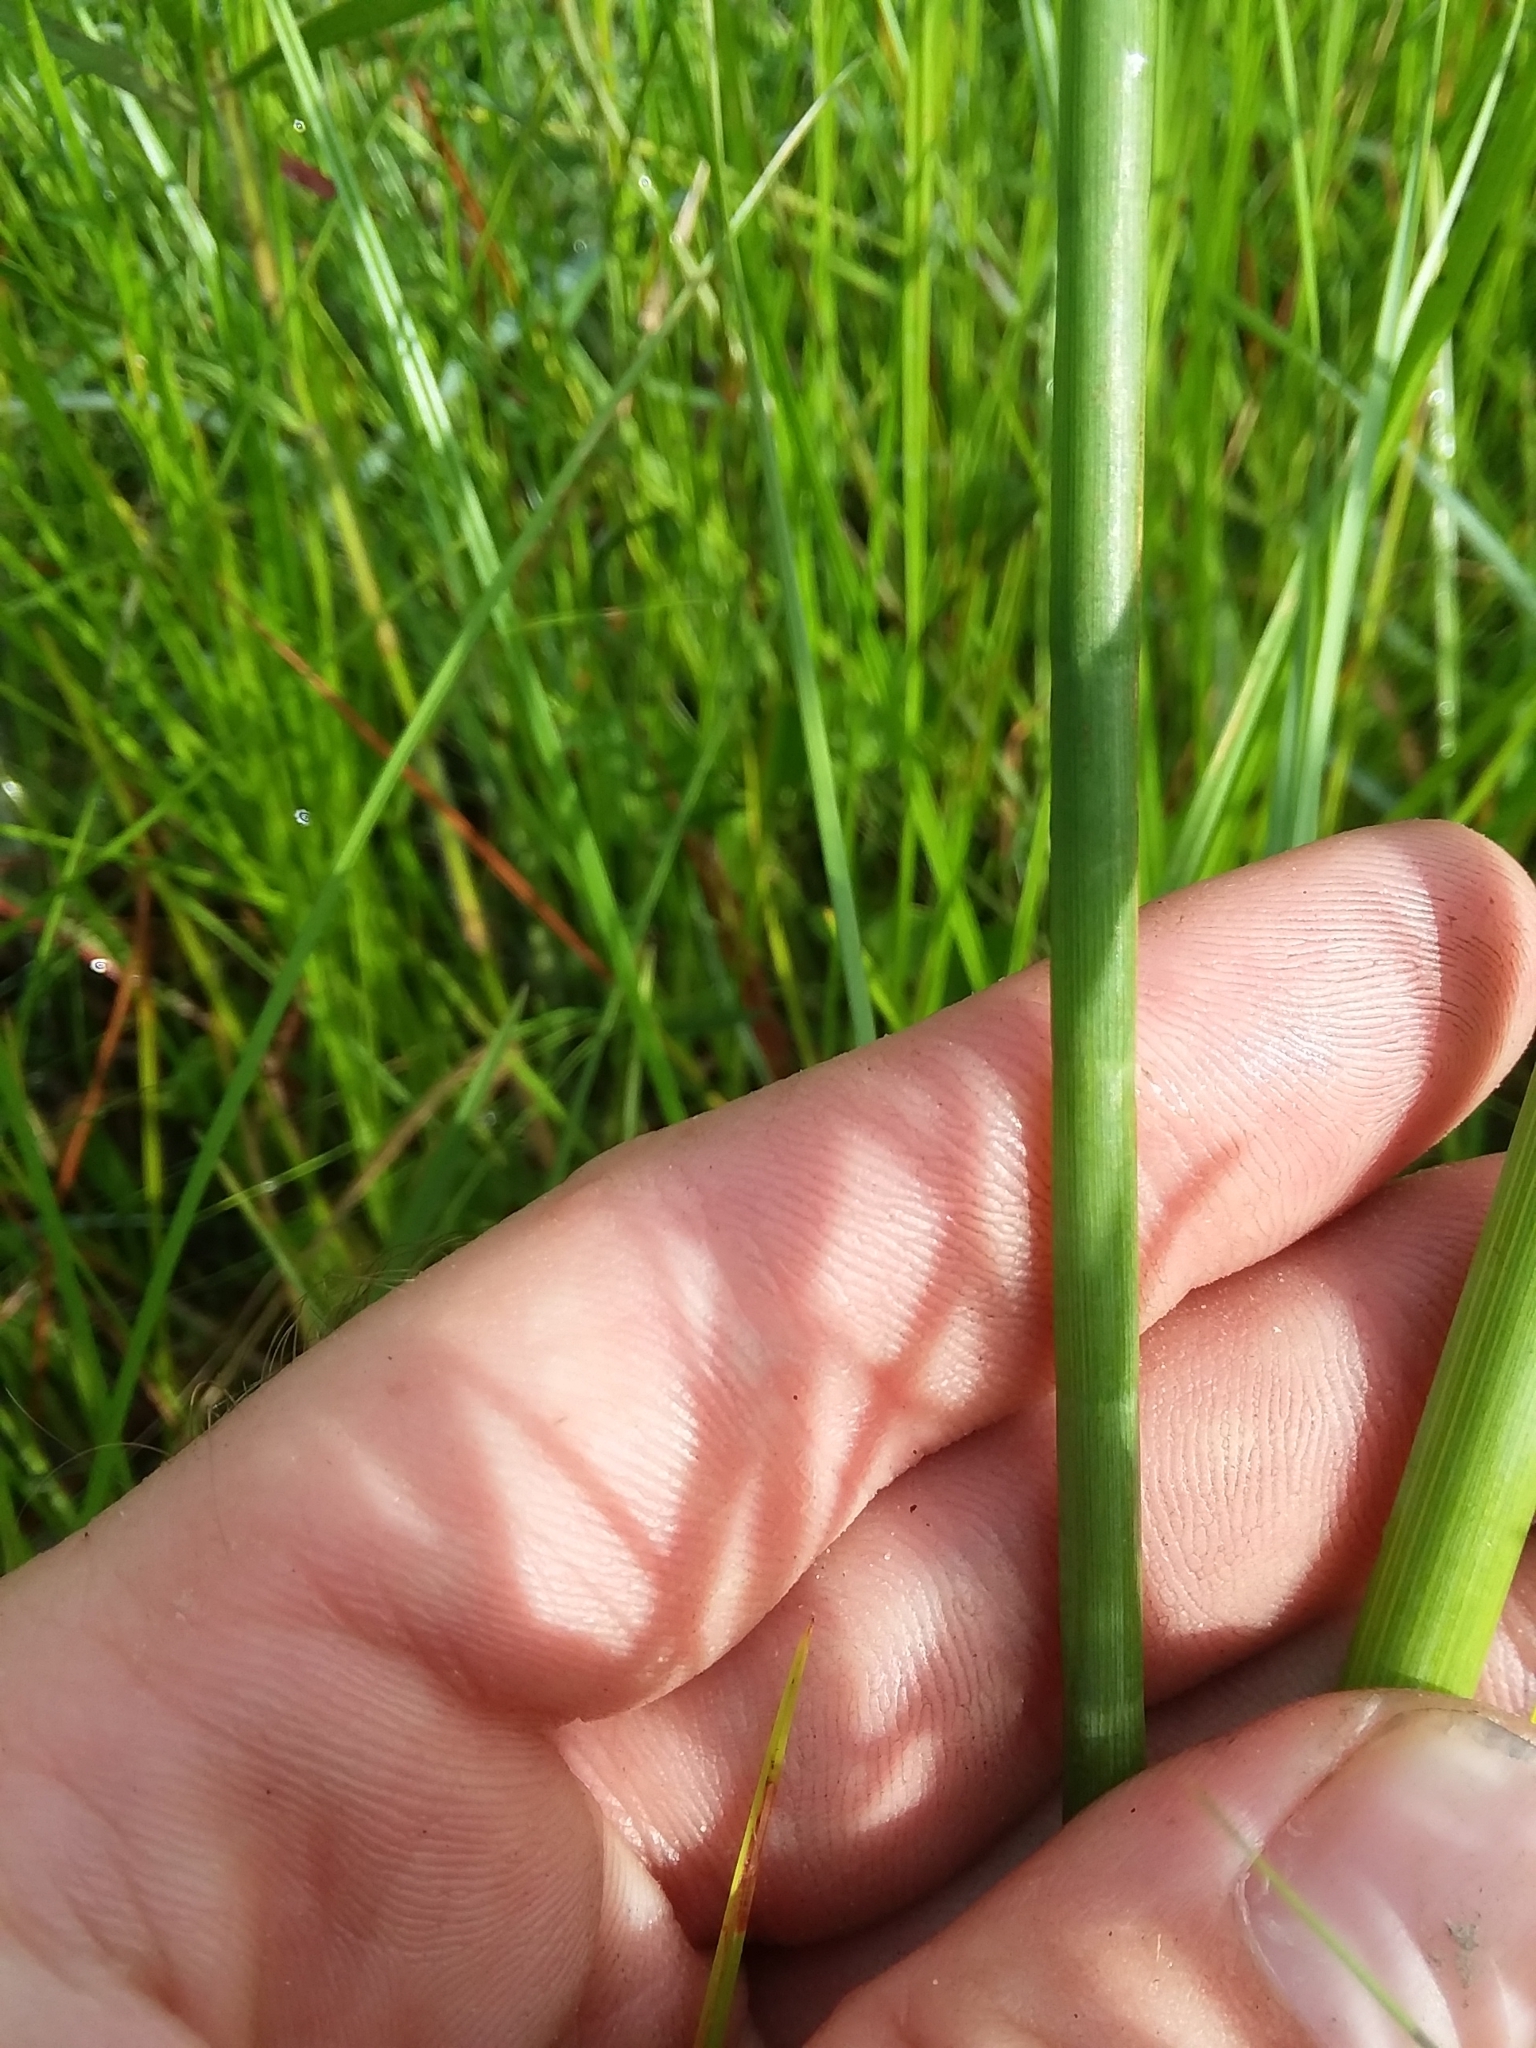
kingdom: Plantae
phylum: Tracheophyta
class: Magnoliopsida
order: Apiales
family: Apiaceae
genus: Tiedemannia
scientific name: Tiedemannia filiformis
